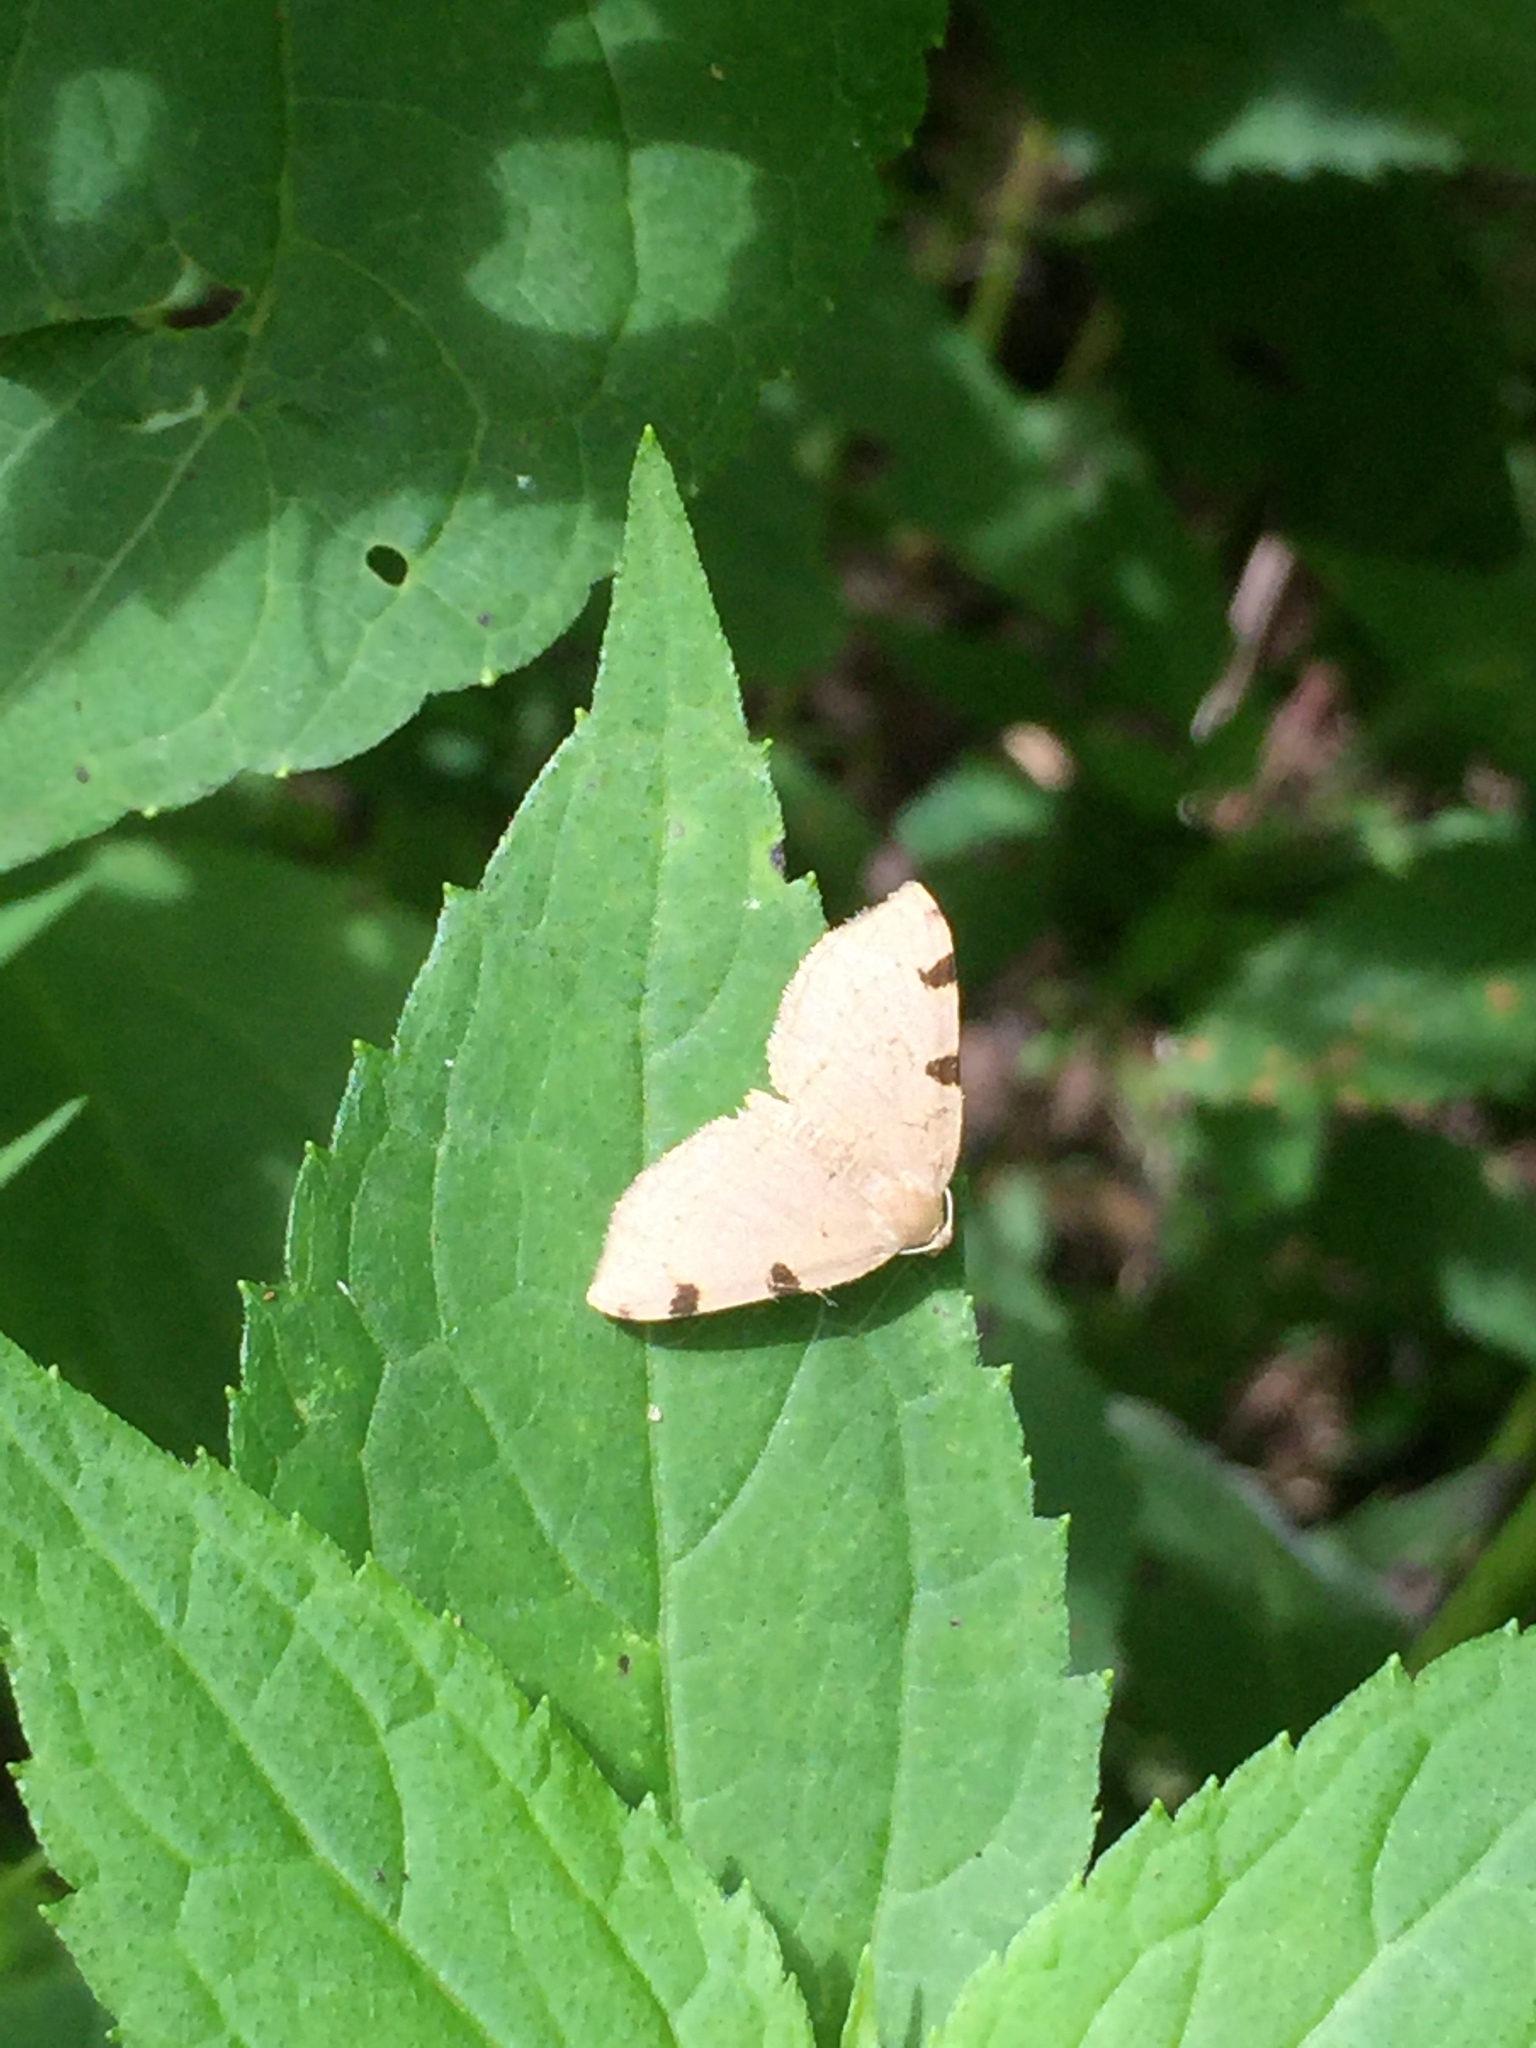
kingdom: Animalia
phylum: Arthropoda
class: Insecta
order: Lepidoptera
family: Geometridae
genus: Heterophleps
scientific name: Heterophleps triguttaria
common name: Three-spotted fillip
